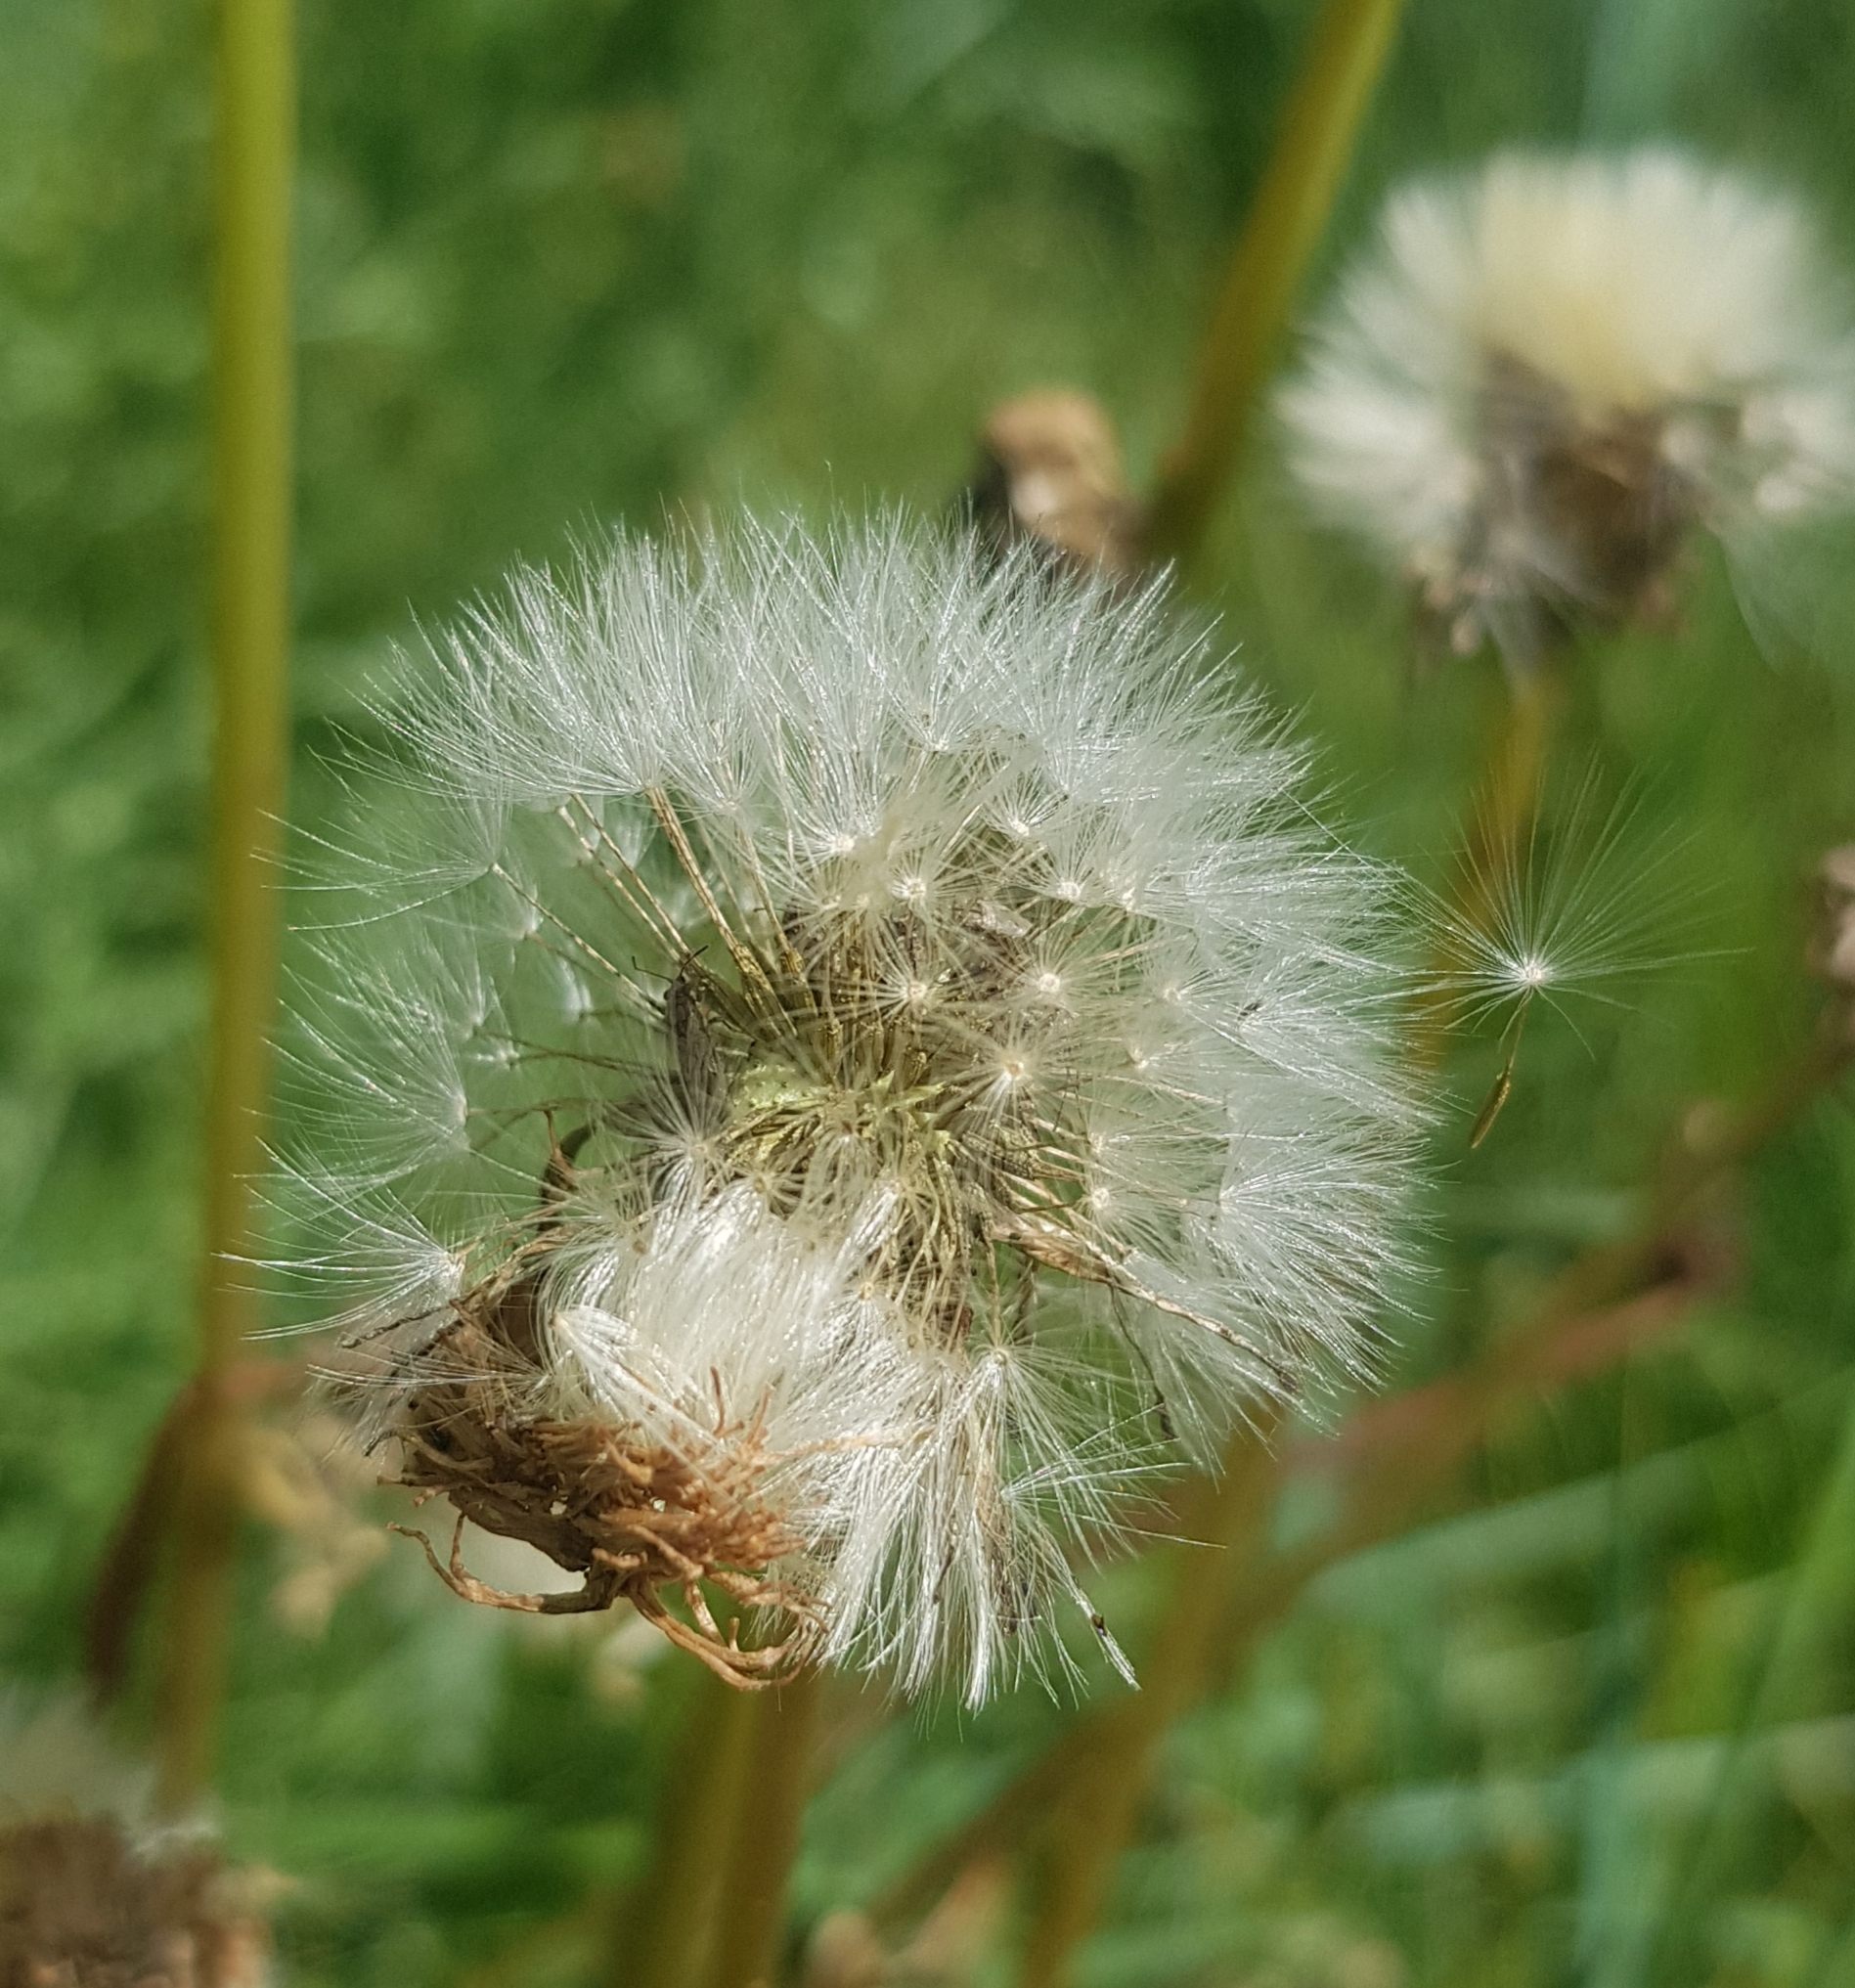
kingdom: Plantae
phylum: Tracheophyta
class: Magnoliopsida
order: Asterales
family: Asteraceae
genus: Taraxacum
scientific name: Taraxacum officinale
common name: Common dandelion
